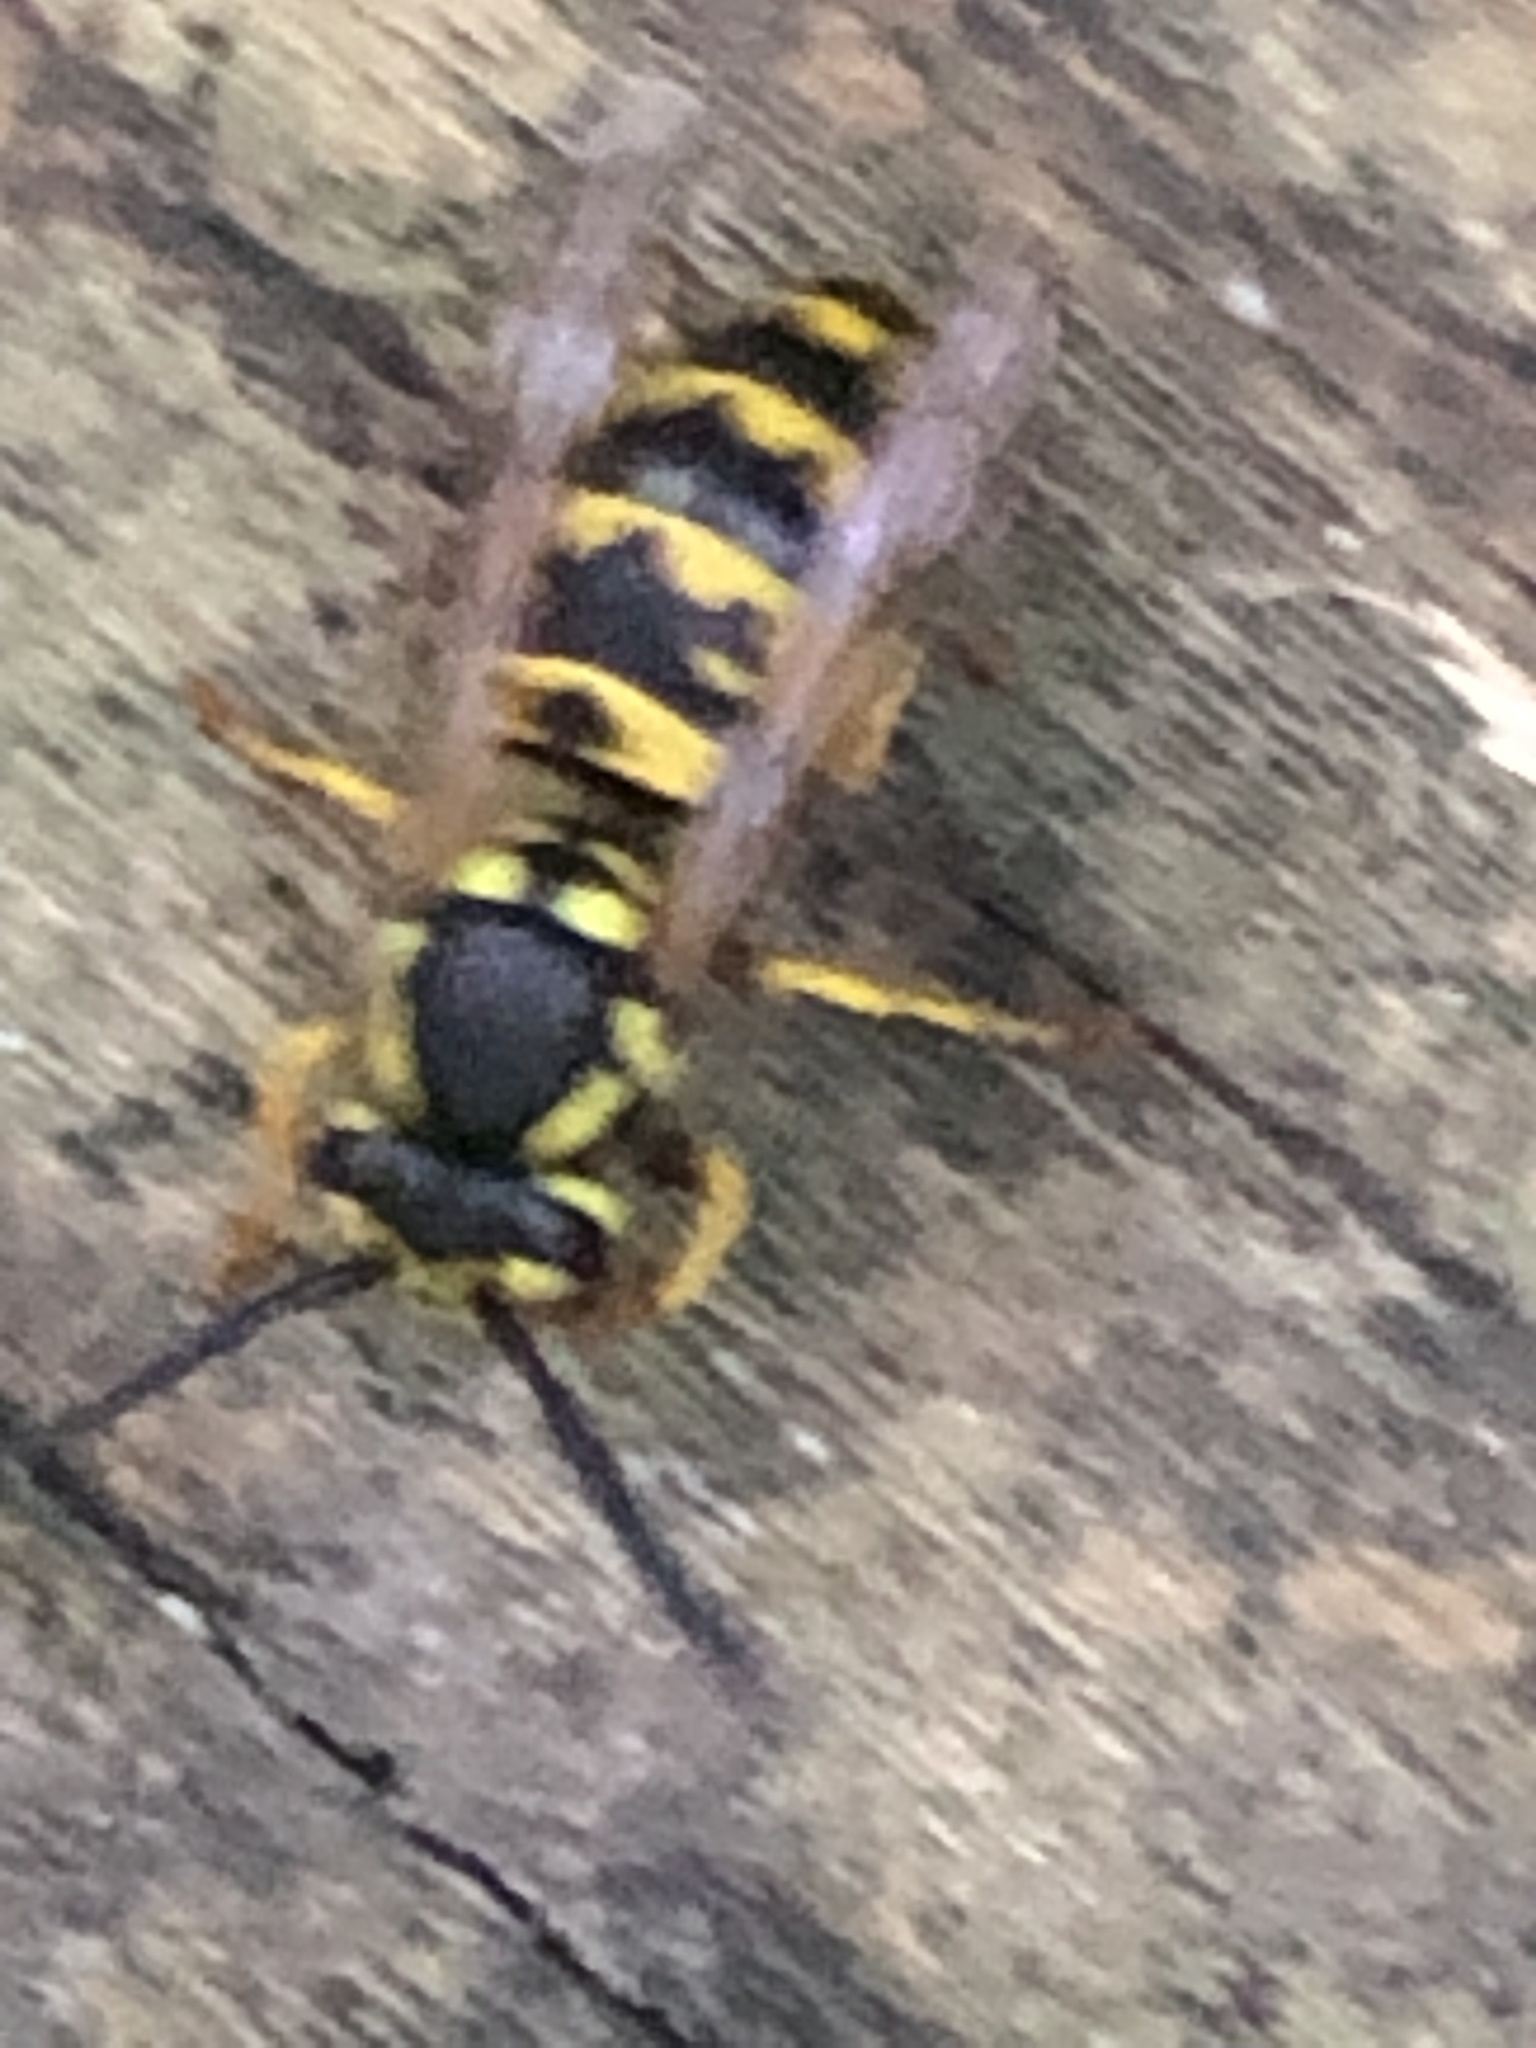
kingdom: Animalia
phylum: Arthropoda
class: Insecta
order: Hymenoptera
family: Vespidae
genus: Vespula
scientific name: Vespula germanica
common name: German wasp
